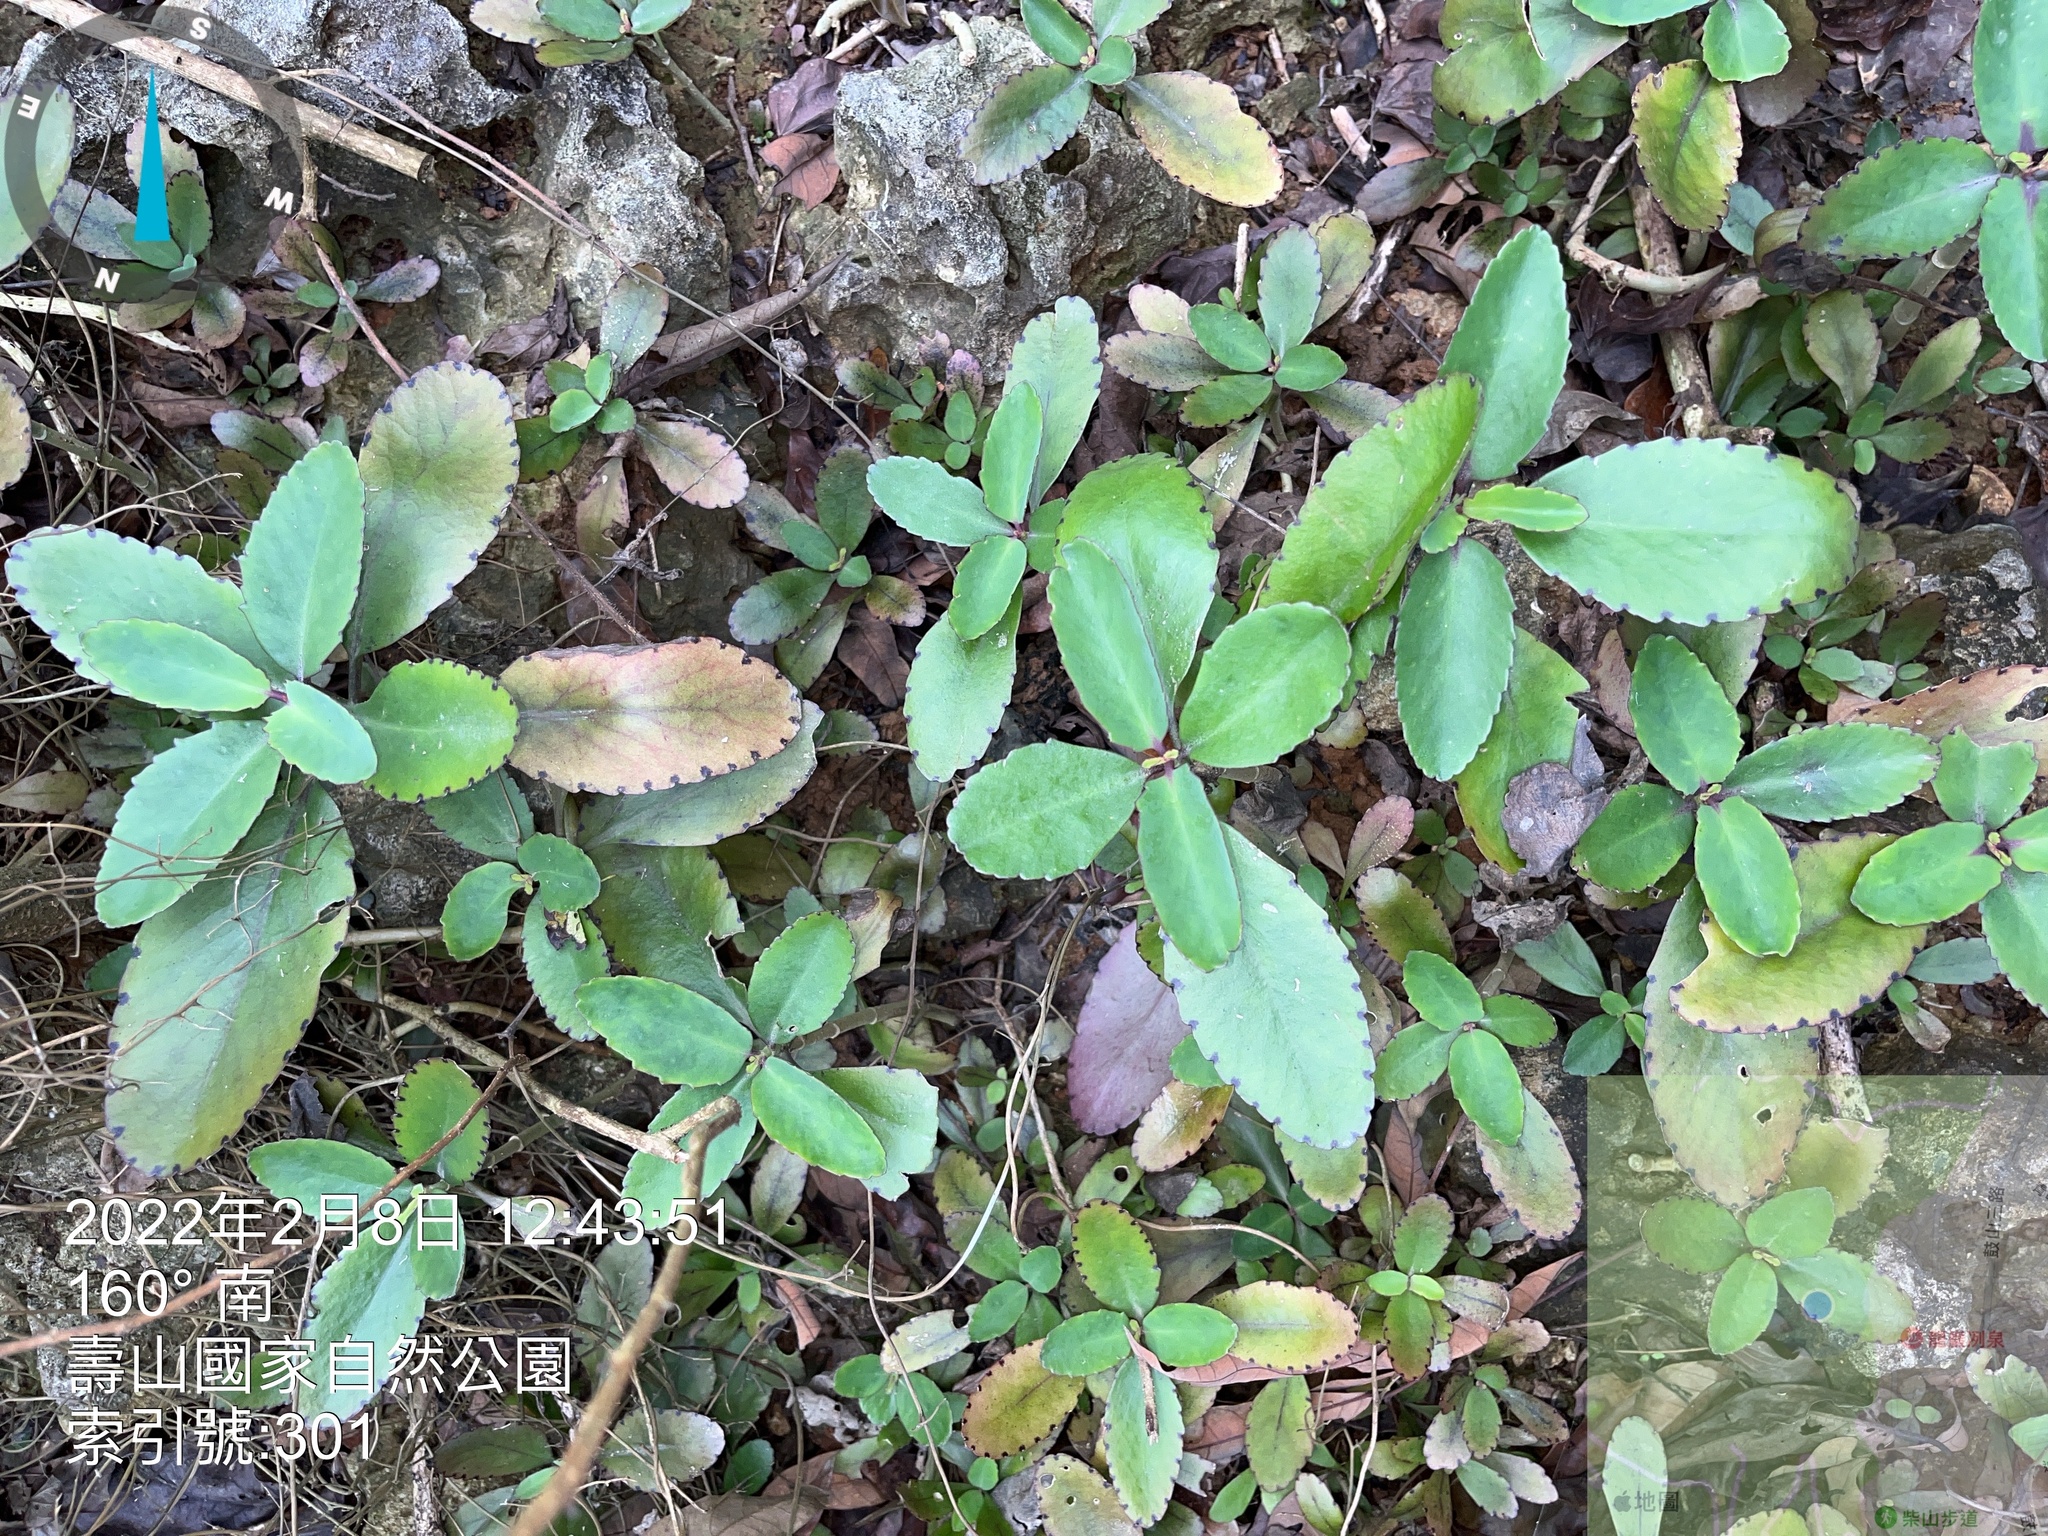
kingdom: Plantae
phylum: Tracheophyta
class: Magnoliopsida
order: Saxifragales
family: Crassulaceae
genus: Kalanchoe
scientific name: Kalanchoe pinnata
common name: Cathedral bells
